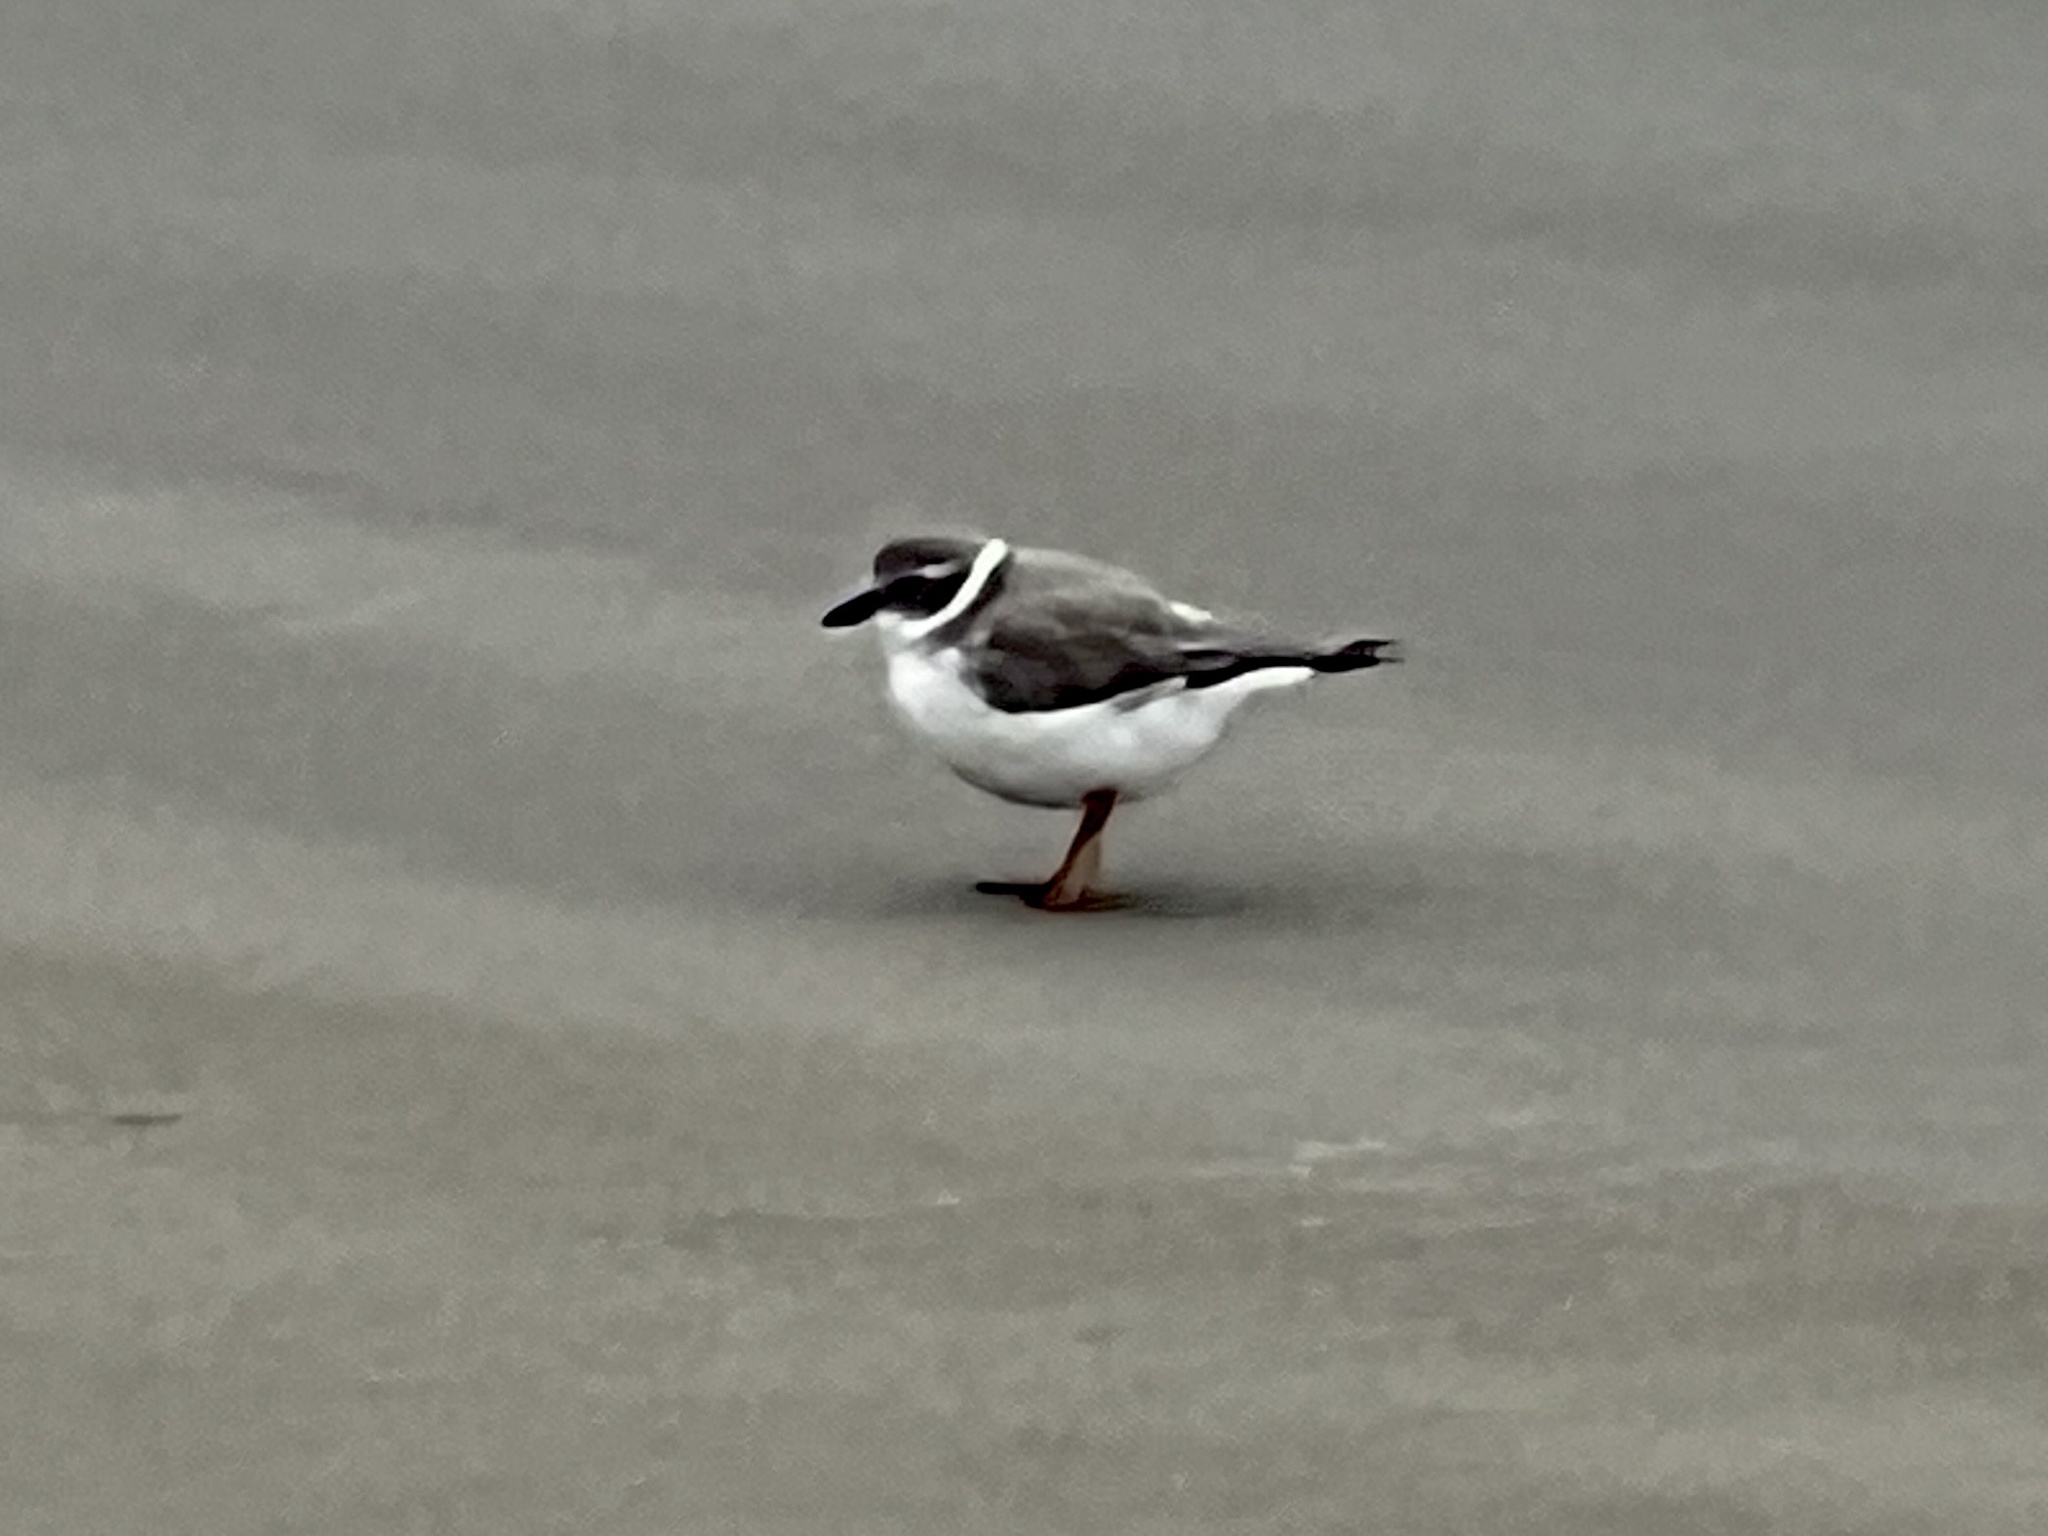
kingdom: Animalia
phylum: Chordata
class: Aves
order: Charadriiformes
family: Charadriidae
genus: Charadrius
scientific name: Charadrius melodus
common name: Piping plover
